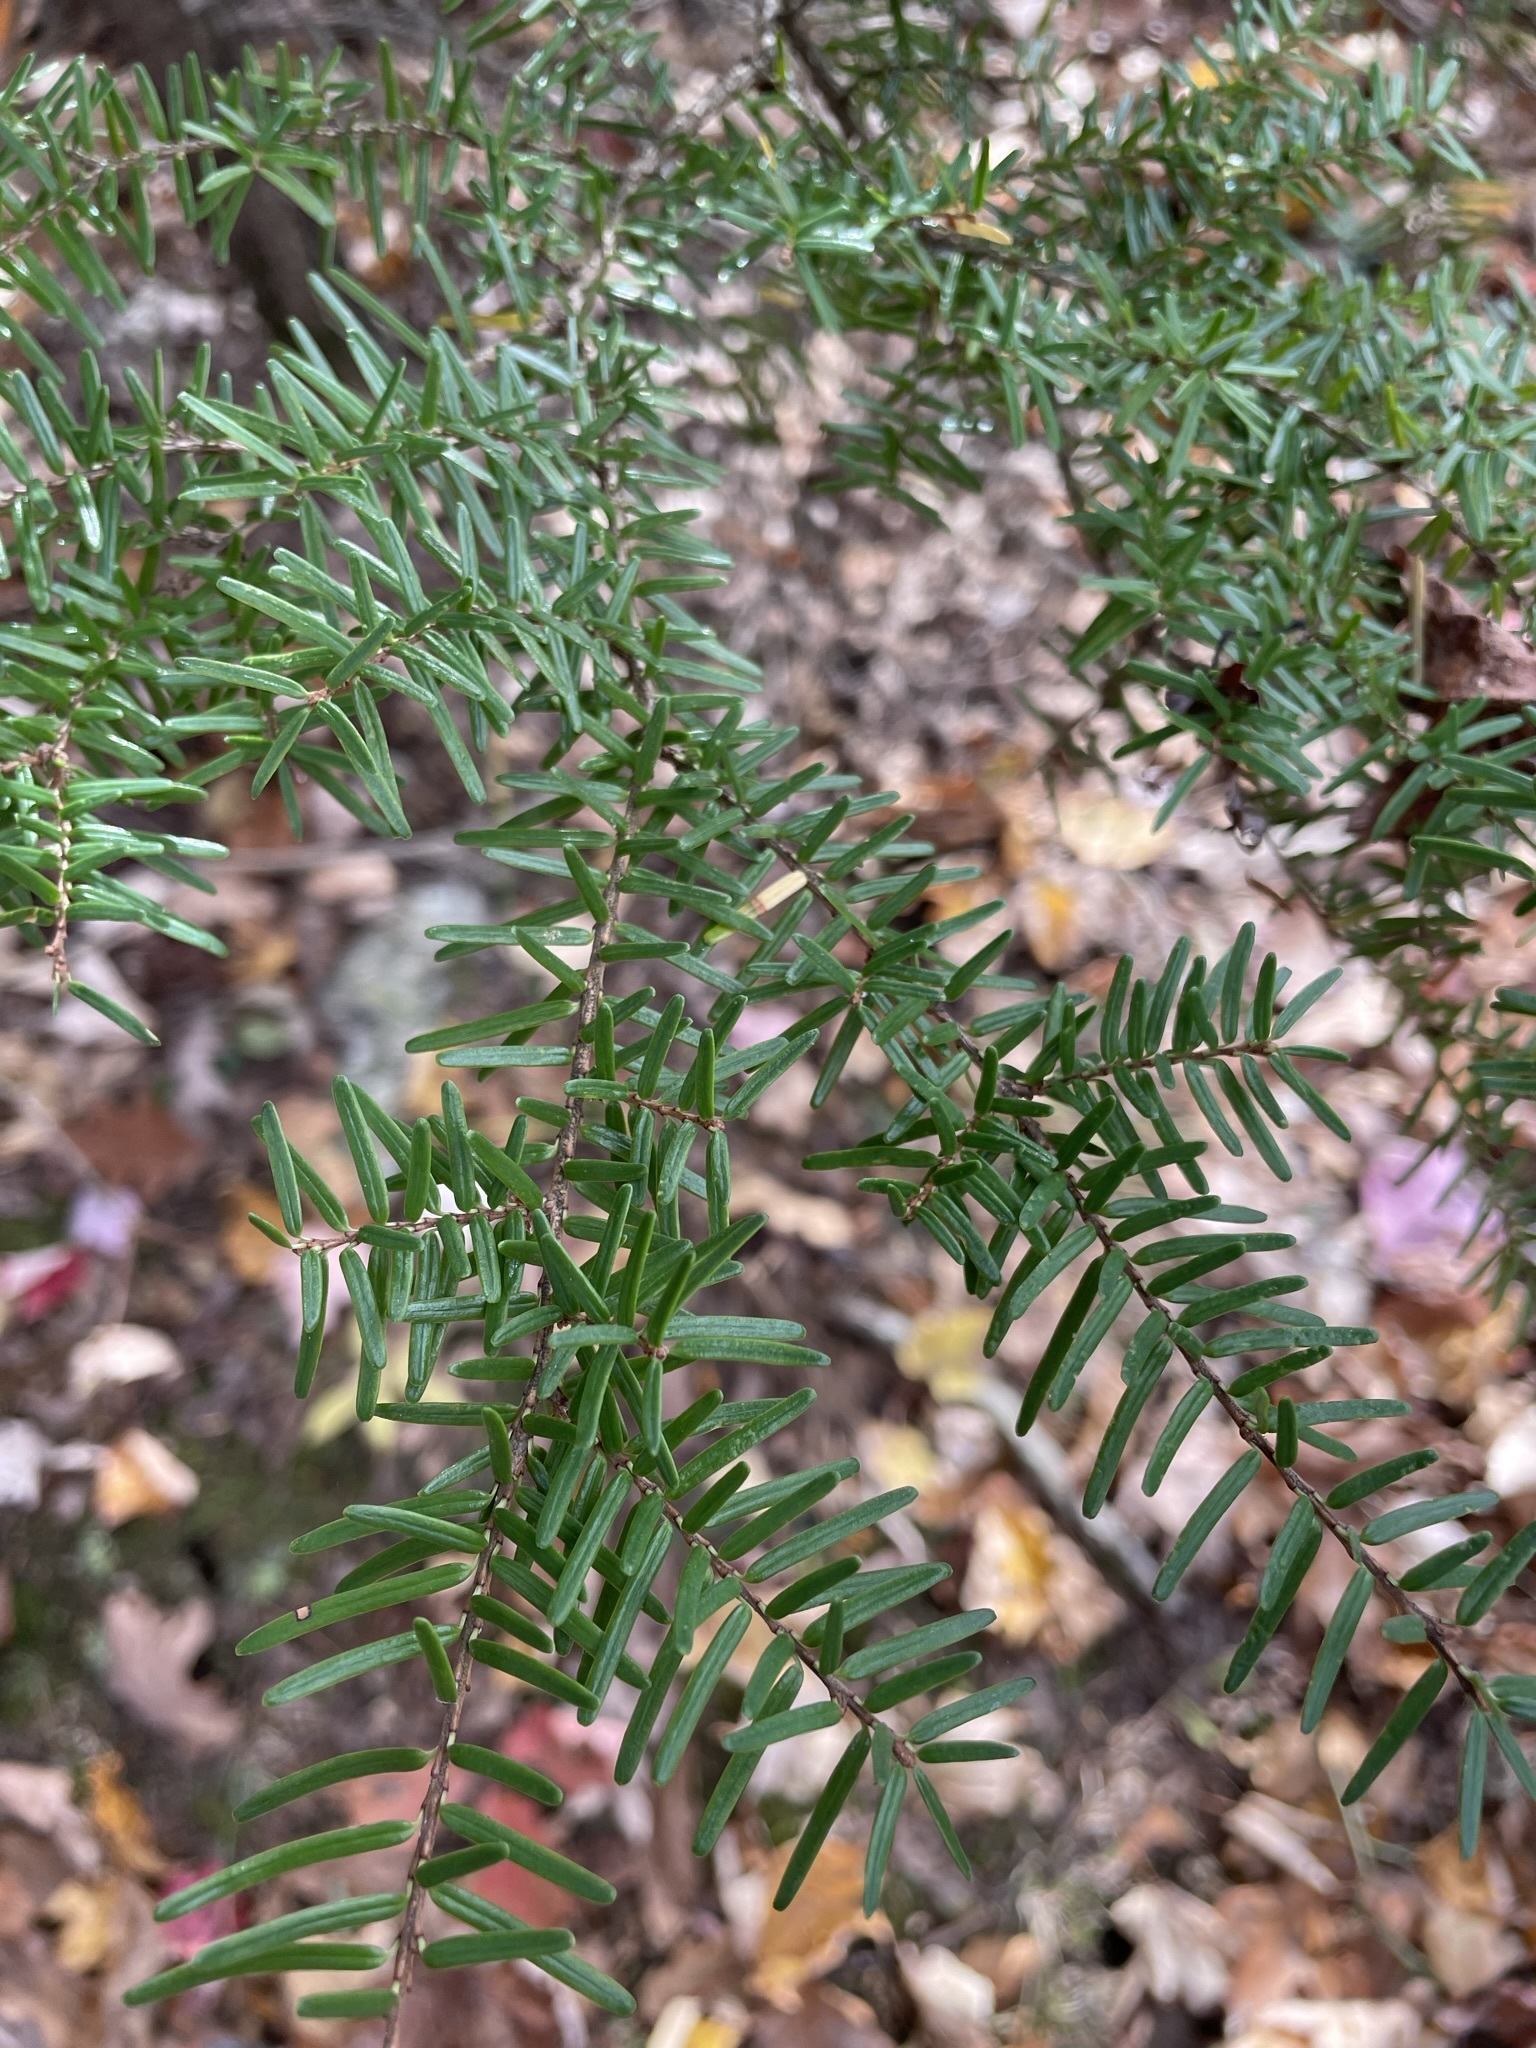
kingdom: Plantae
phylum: Tracheophyta
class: Pinopsida
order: Pinales
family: Pinaceae
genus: Tsuga
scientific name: Tsuga caroliniana
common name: Carolina hemlock
